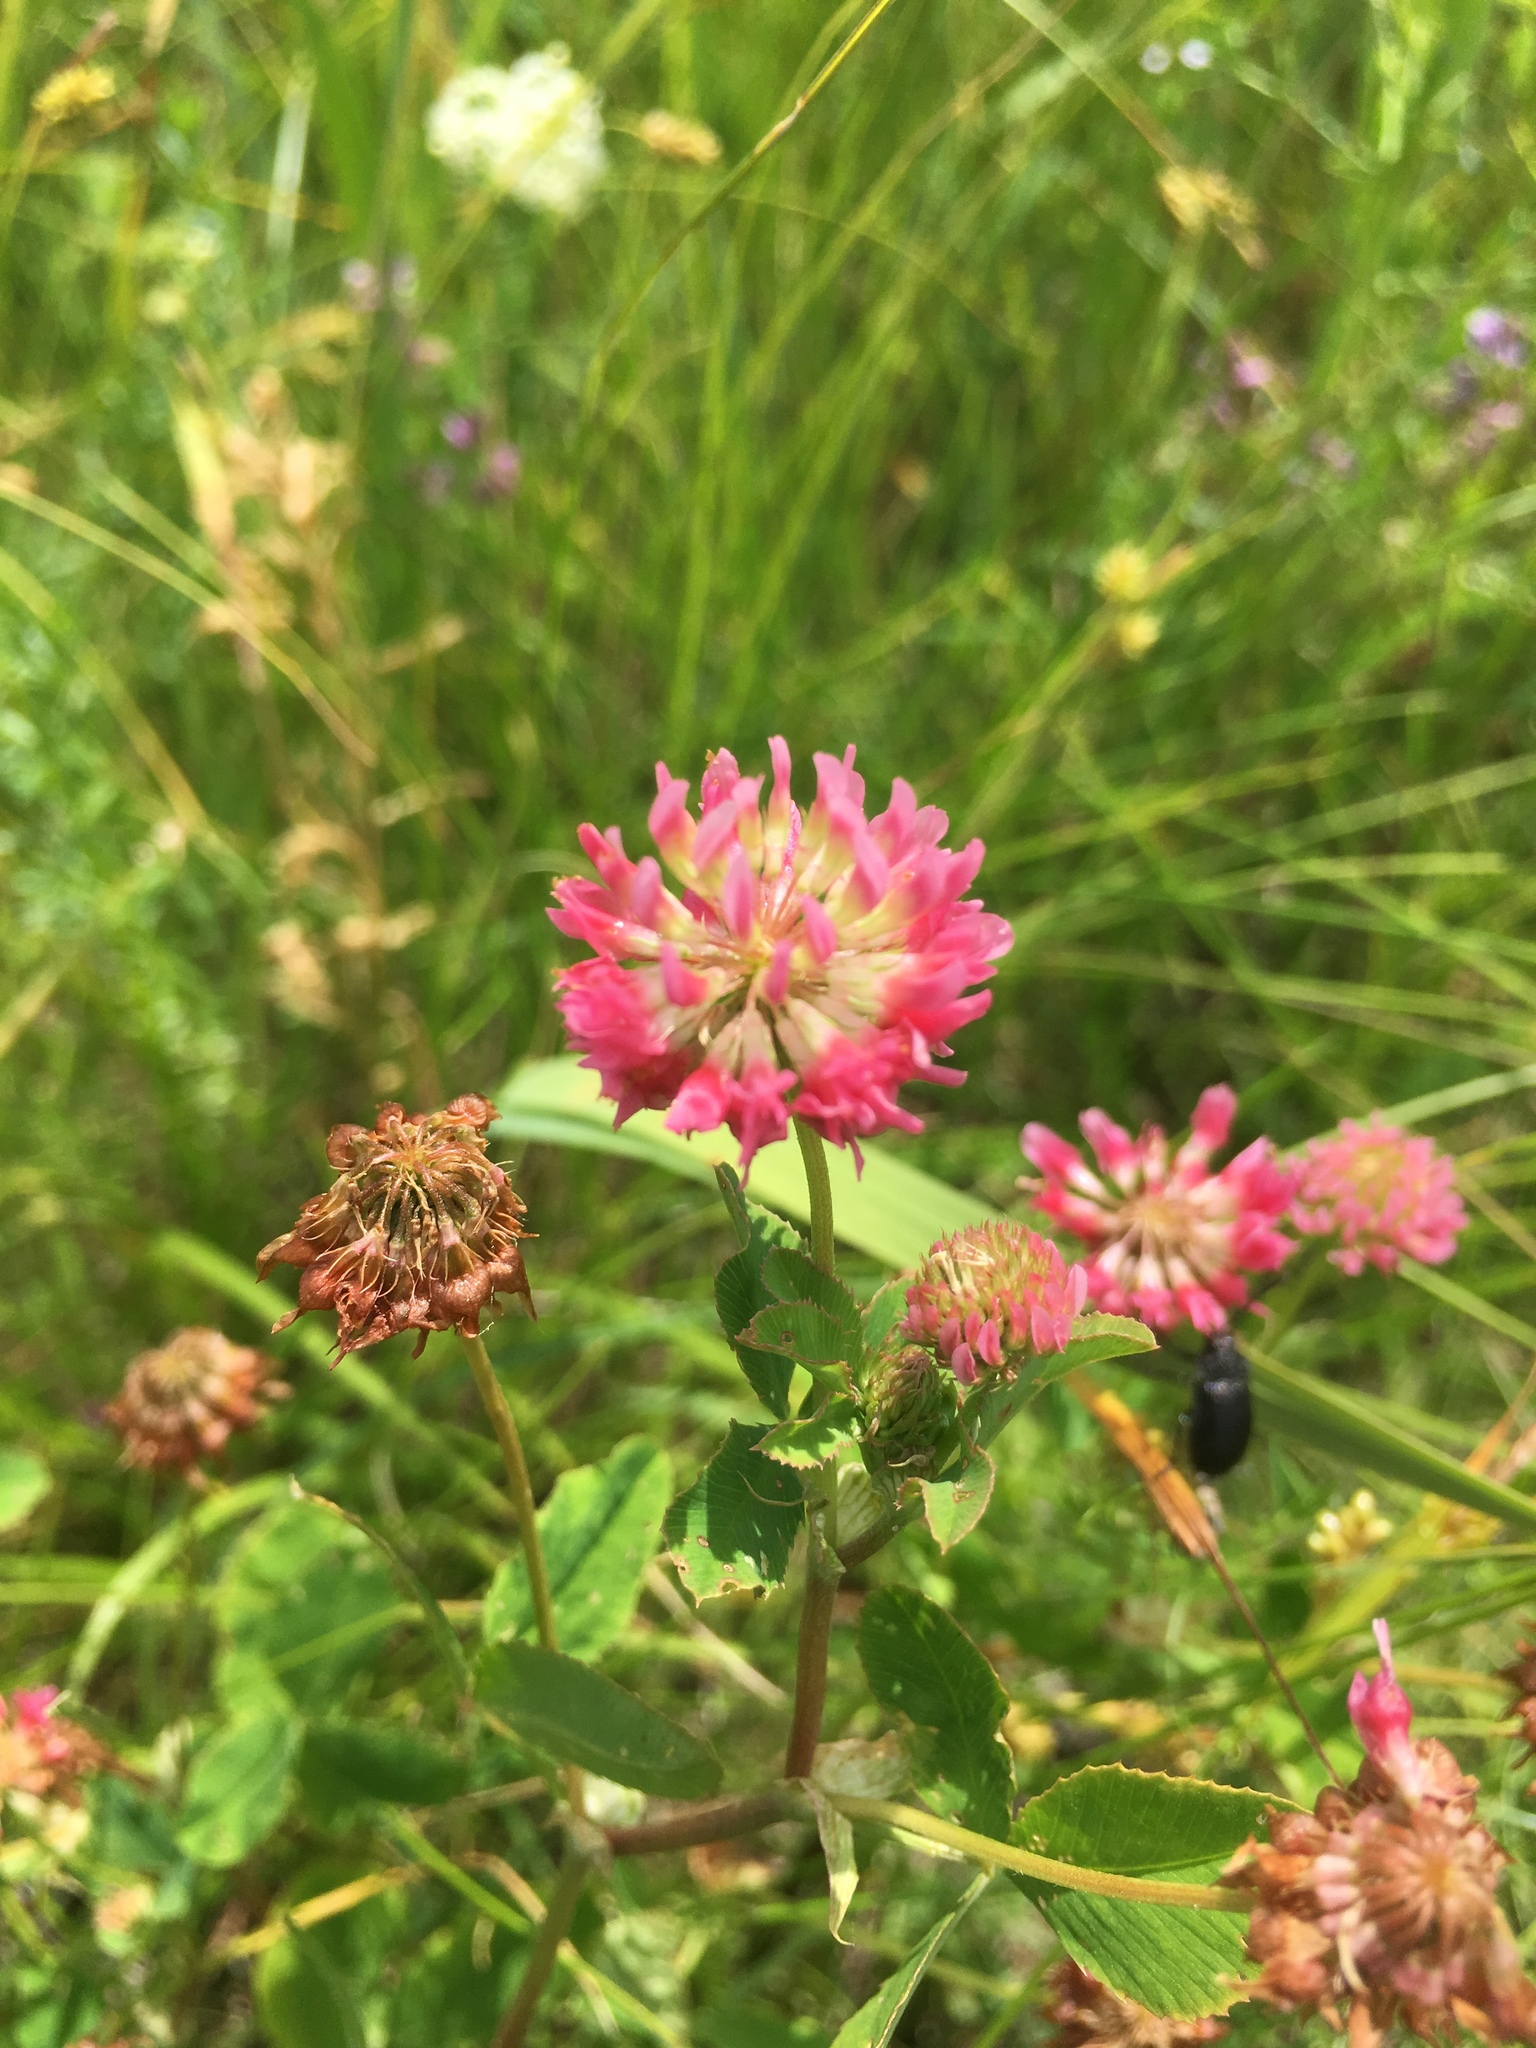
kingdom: Plantae
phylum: Tracheophyta
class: Magnoliopsida
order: Fabales
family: Fabaceae
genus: Trifolium
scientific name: Trifolium hybridum
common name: Alsike clover
